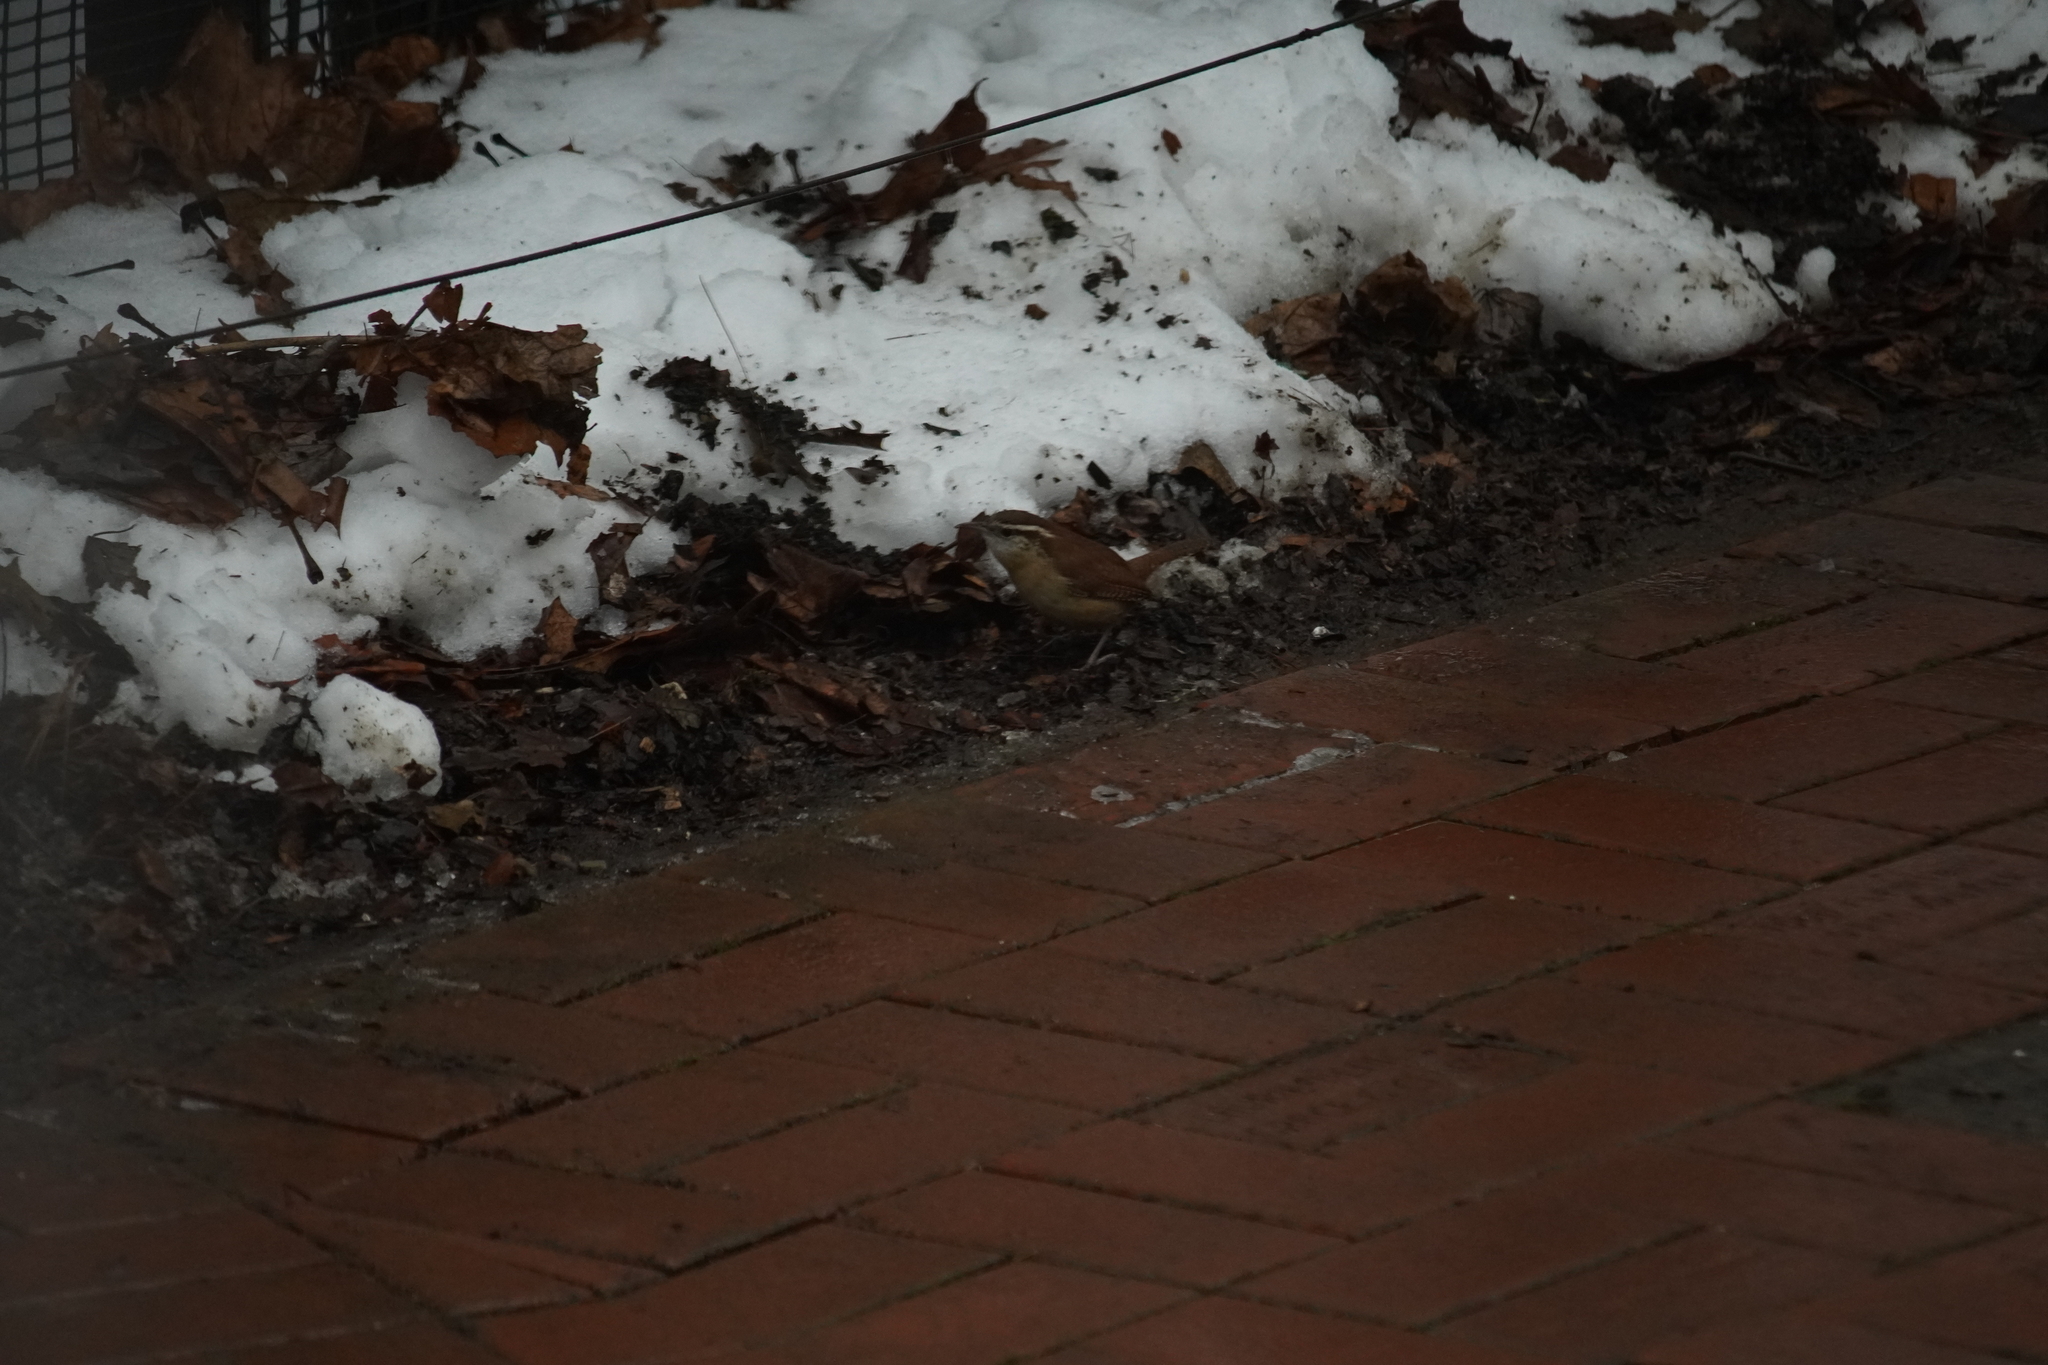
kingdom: Animalia
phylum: Chordata
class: Aves
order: Passeriformes
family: Troglodytidae
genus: Thryothorus
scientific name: Thryothorus ludovicianus
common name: Carolina wren
